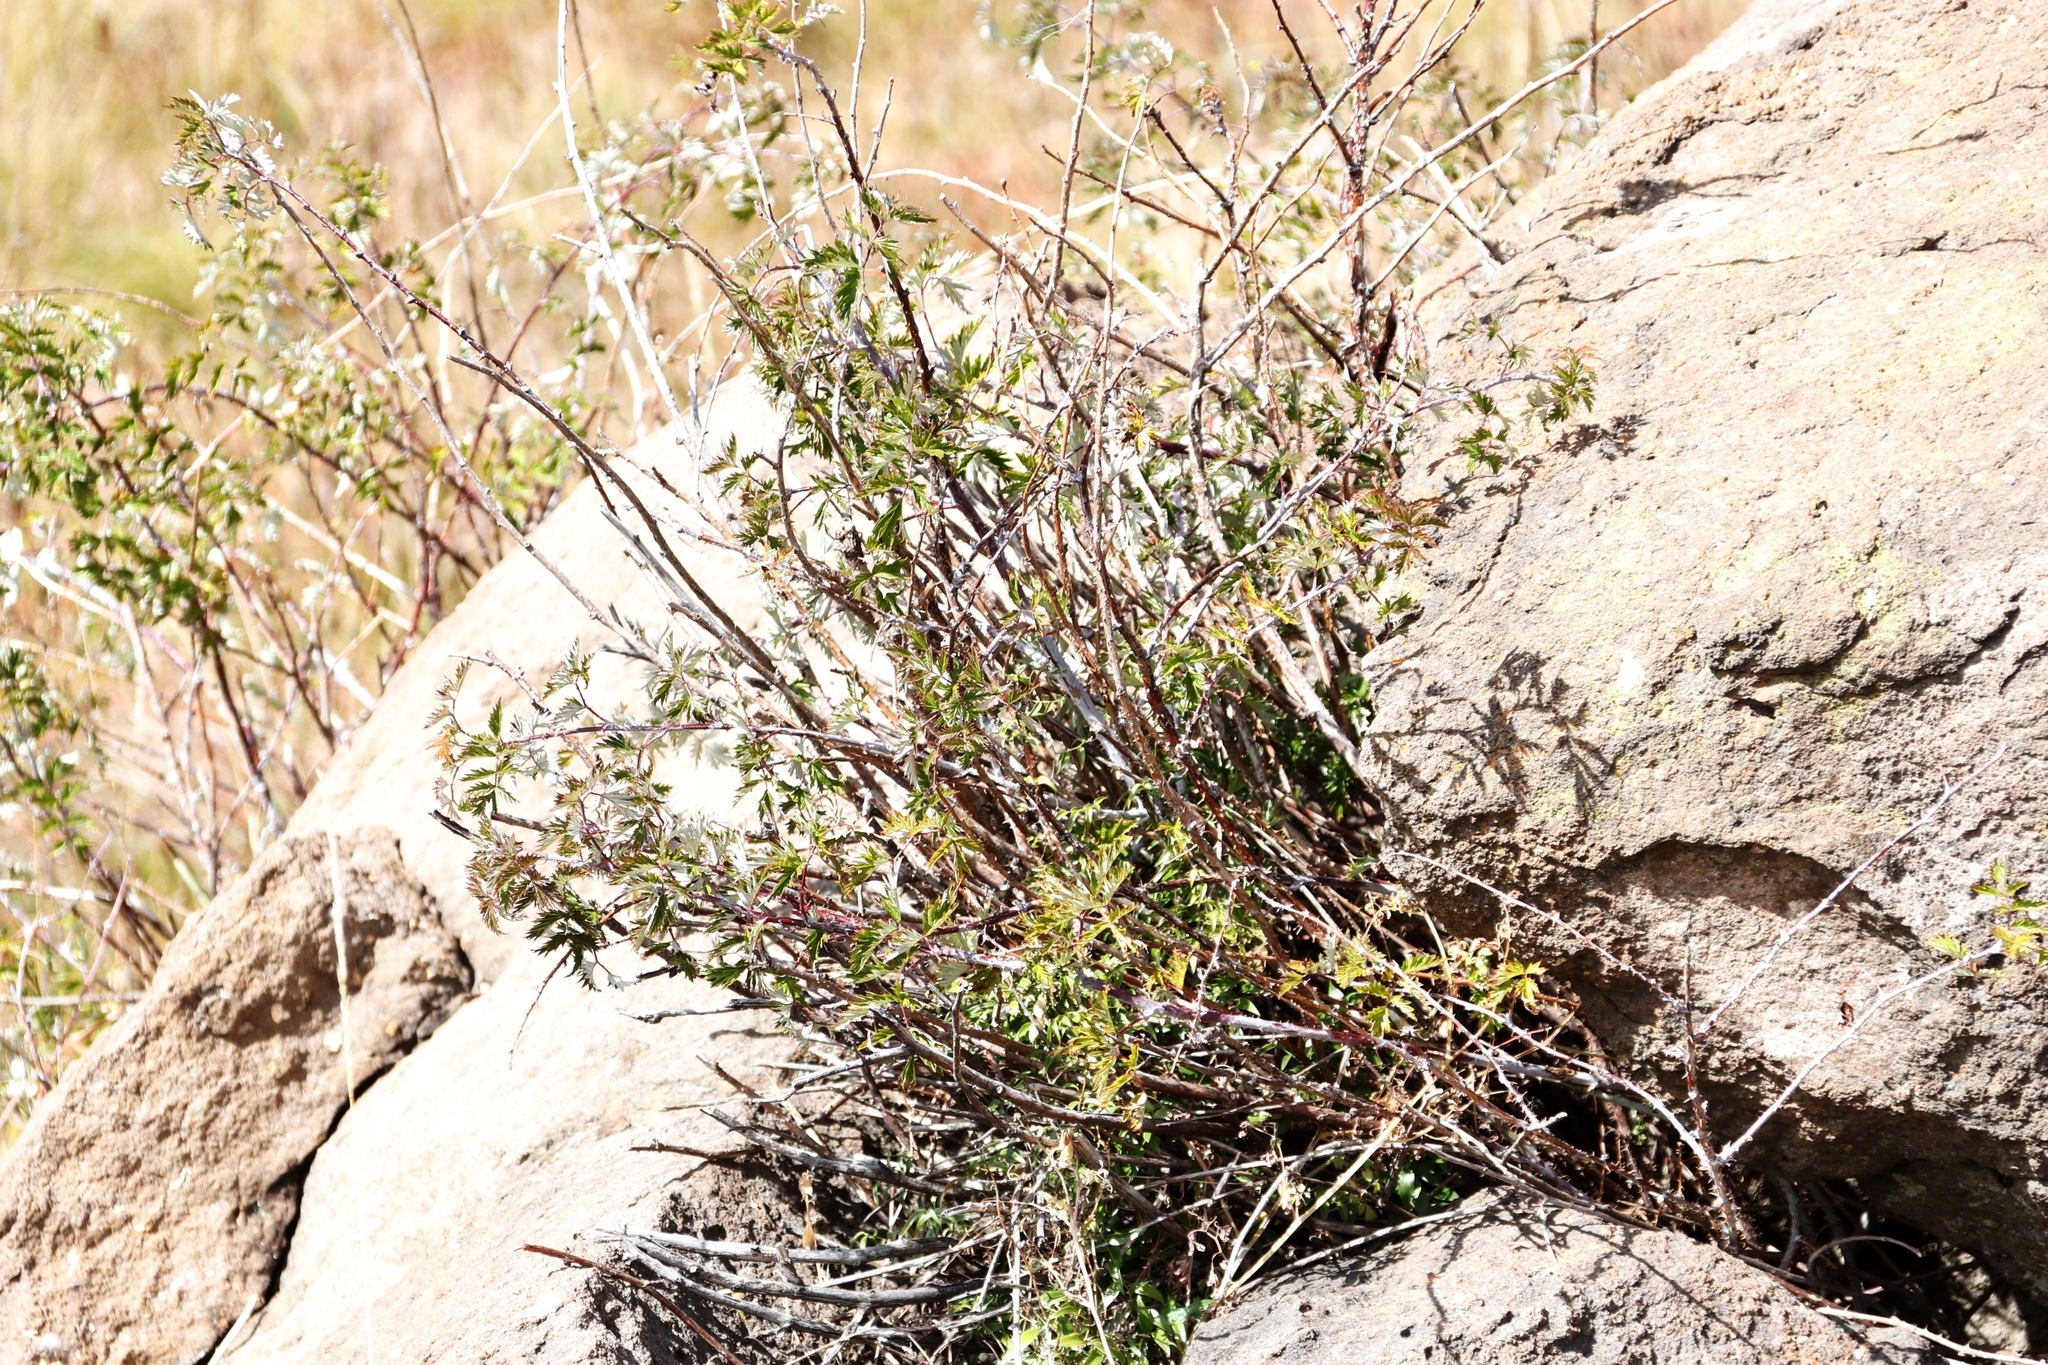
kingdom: Plantae
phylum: Tracheophyta
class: Magnoliopsida
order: Rosales
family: Rosaceae
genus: Rubus
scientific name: Rubus ludwigii
